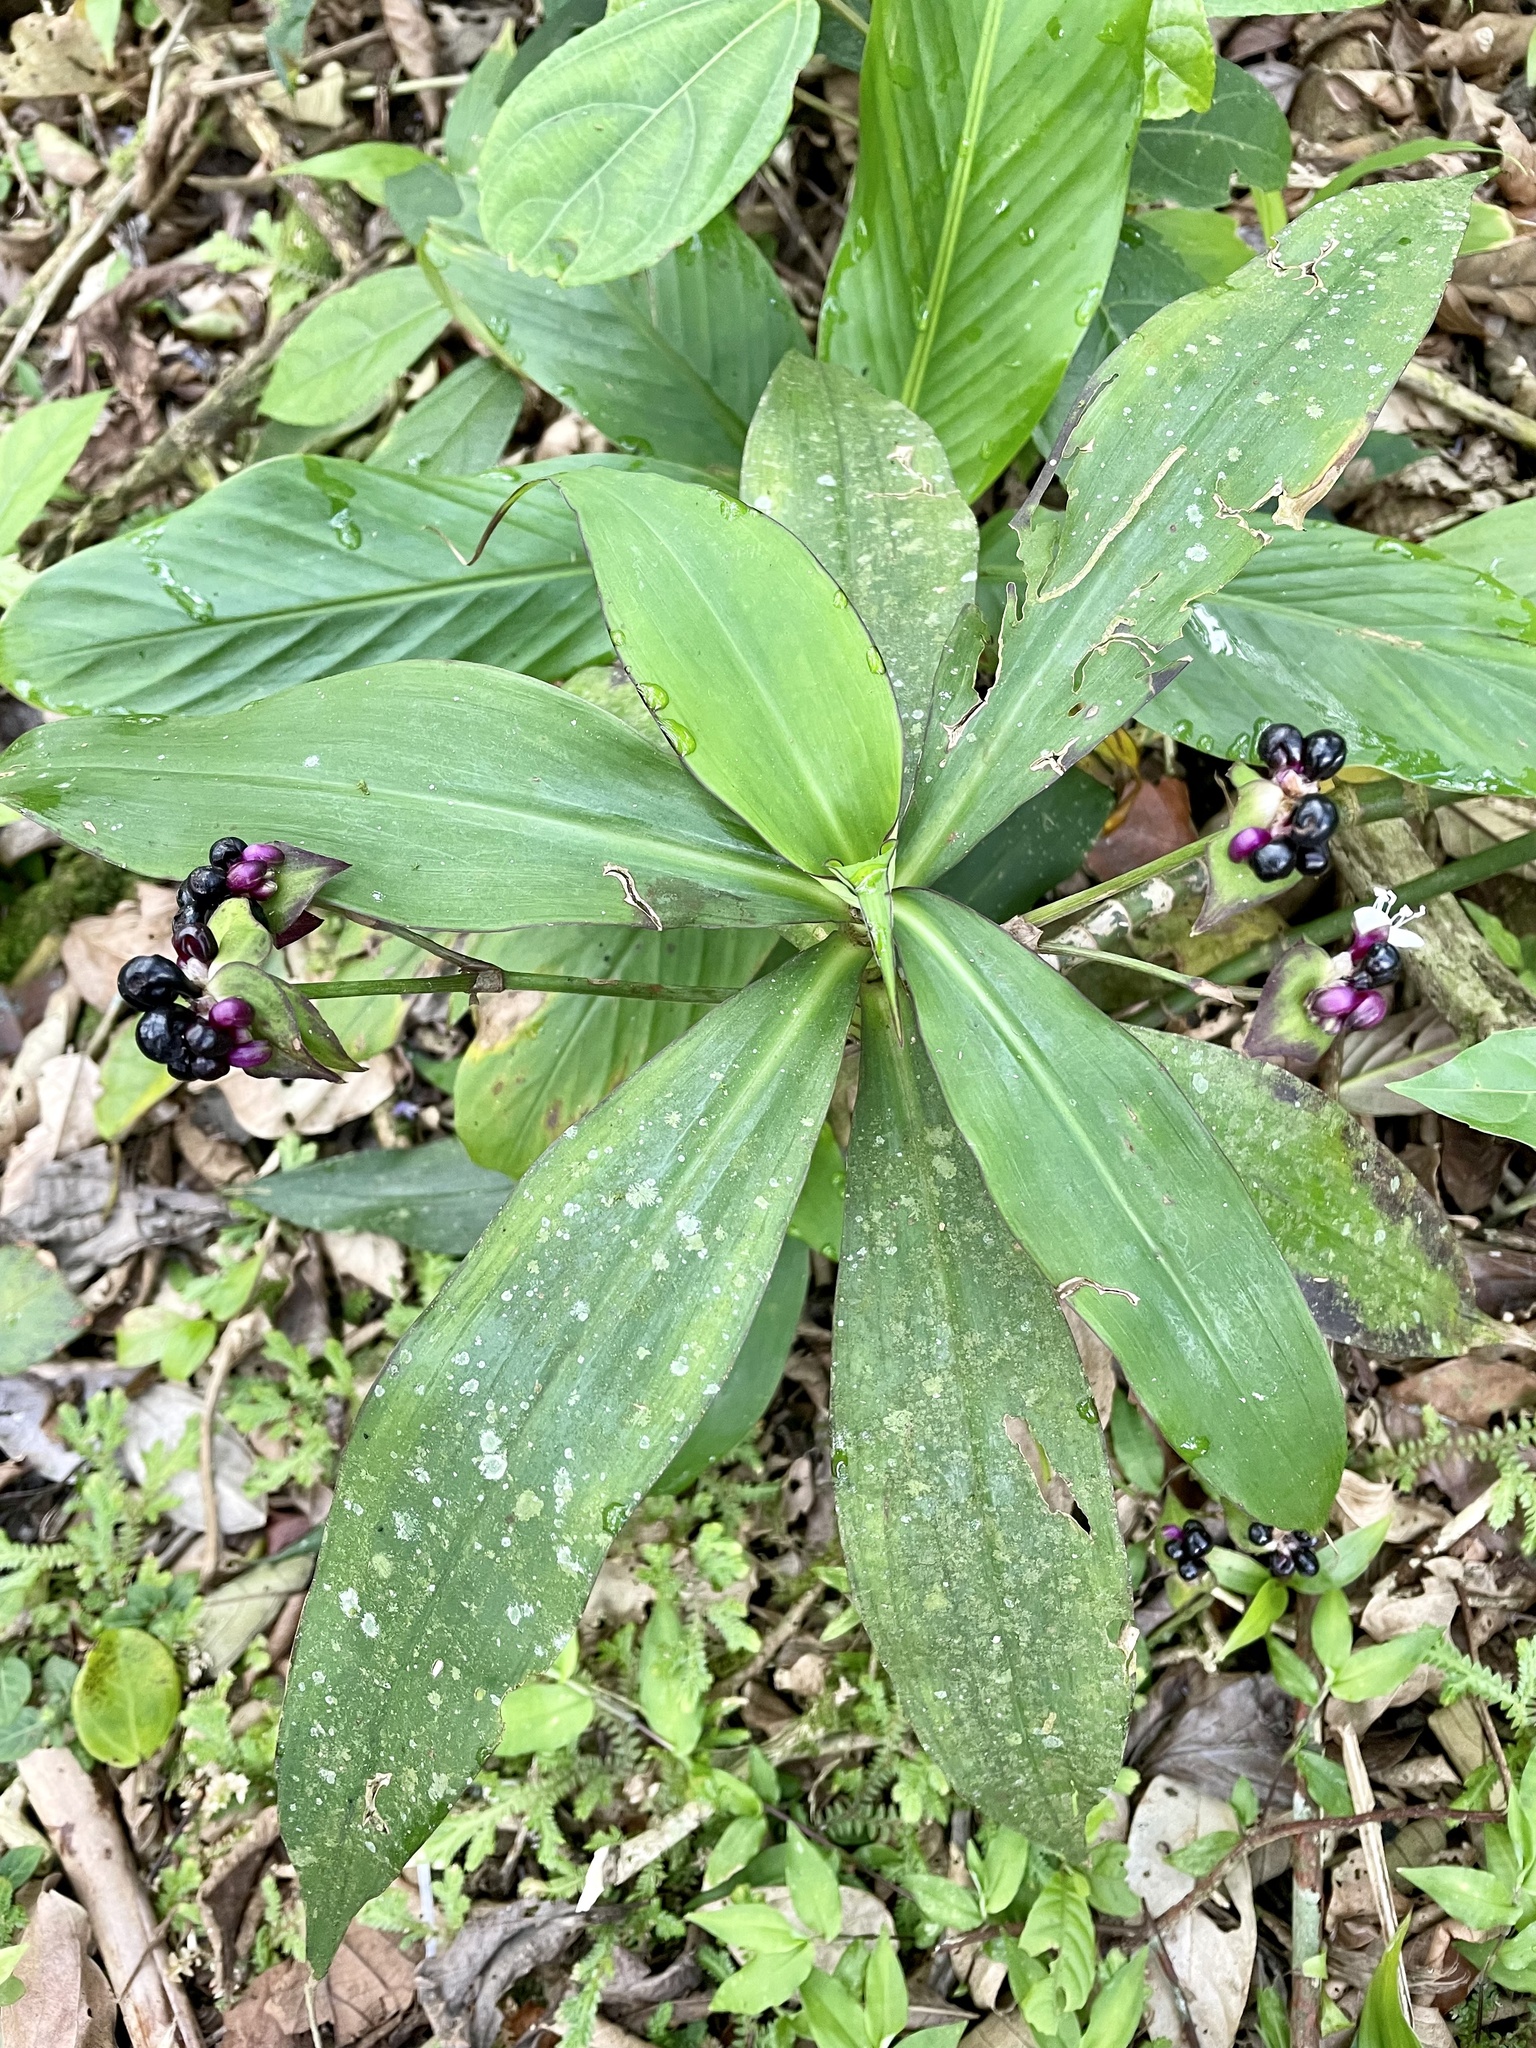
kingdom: Plantae
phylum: Tracheophyta
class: Liliopsida
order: Commelinales
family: Commelinaceae
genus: Tradescantia
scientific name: Tradescantia zanonia
